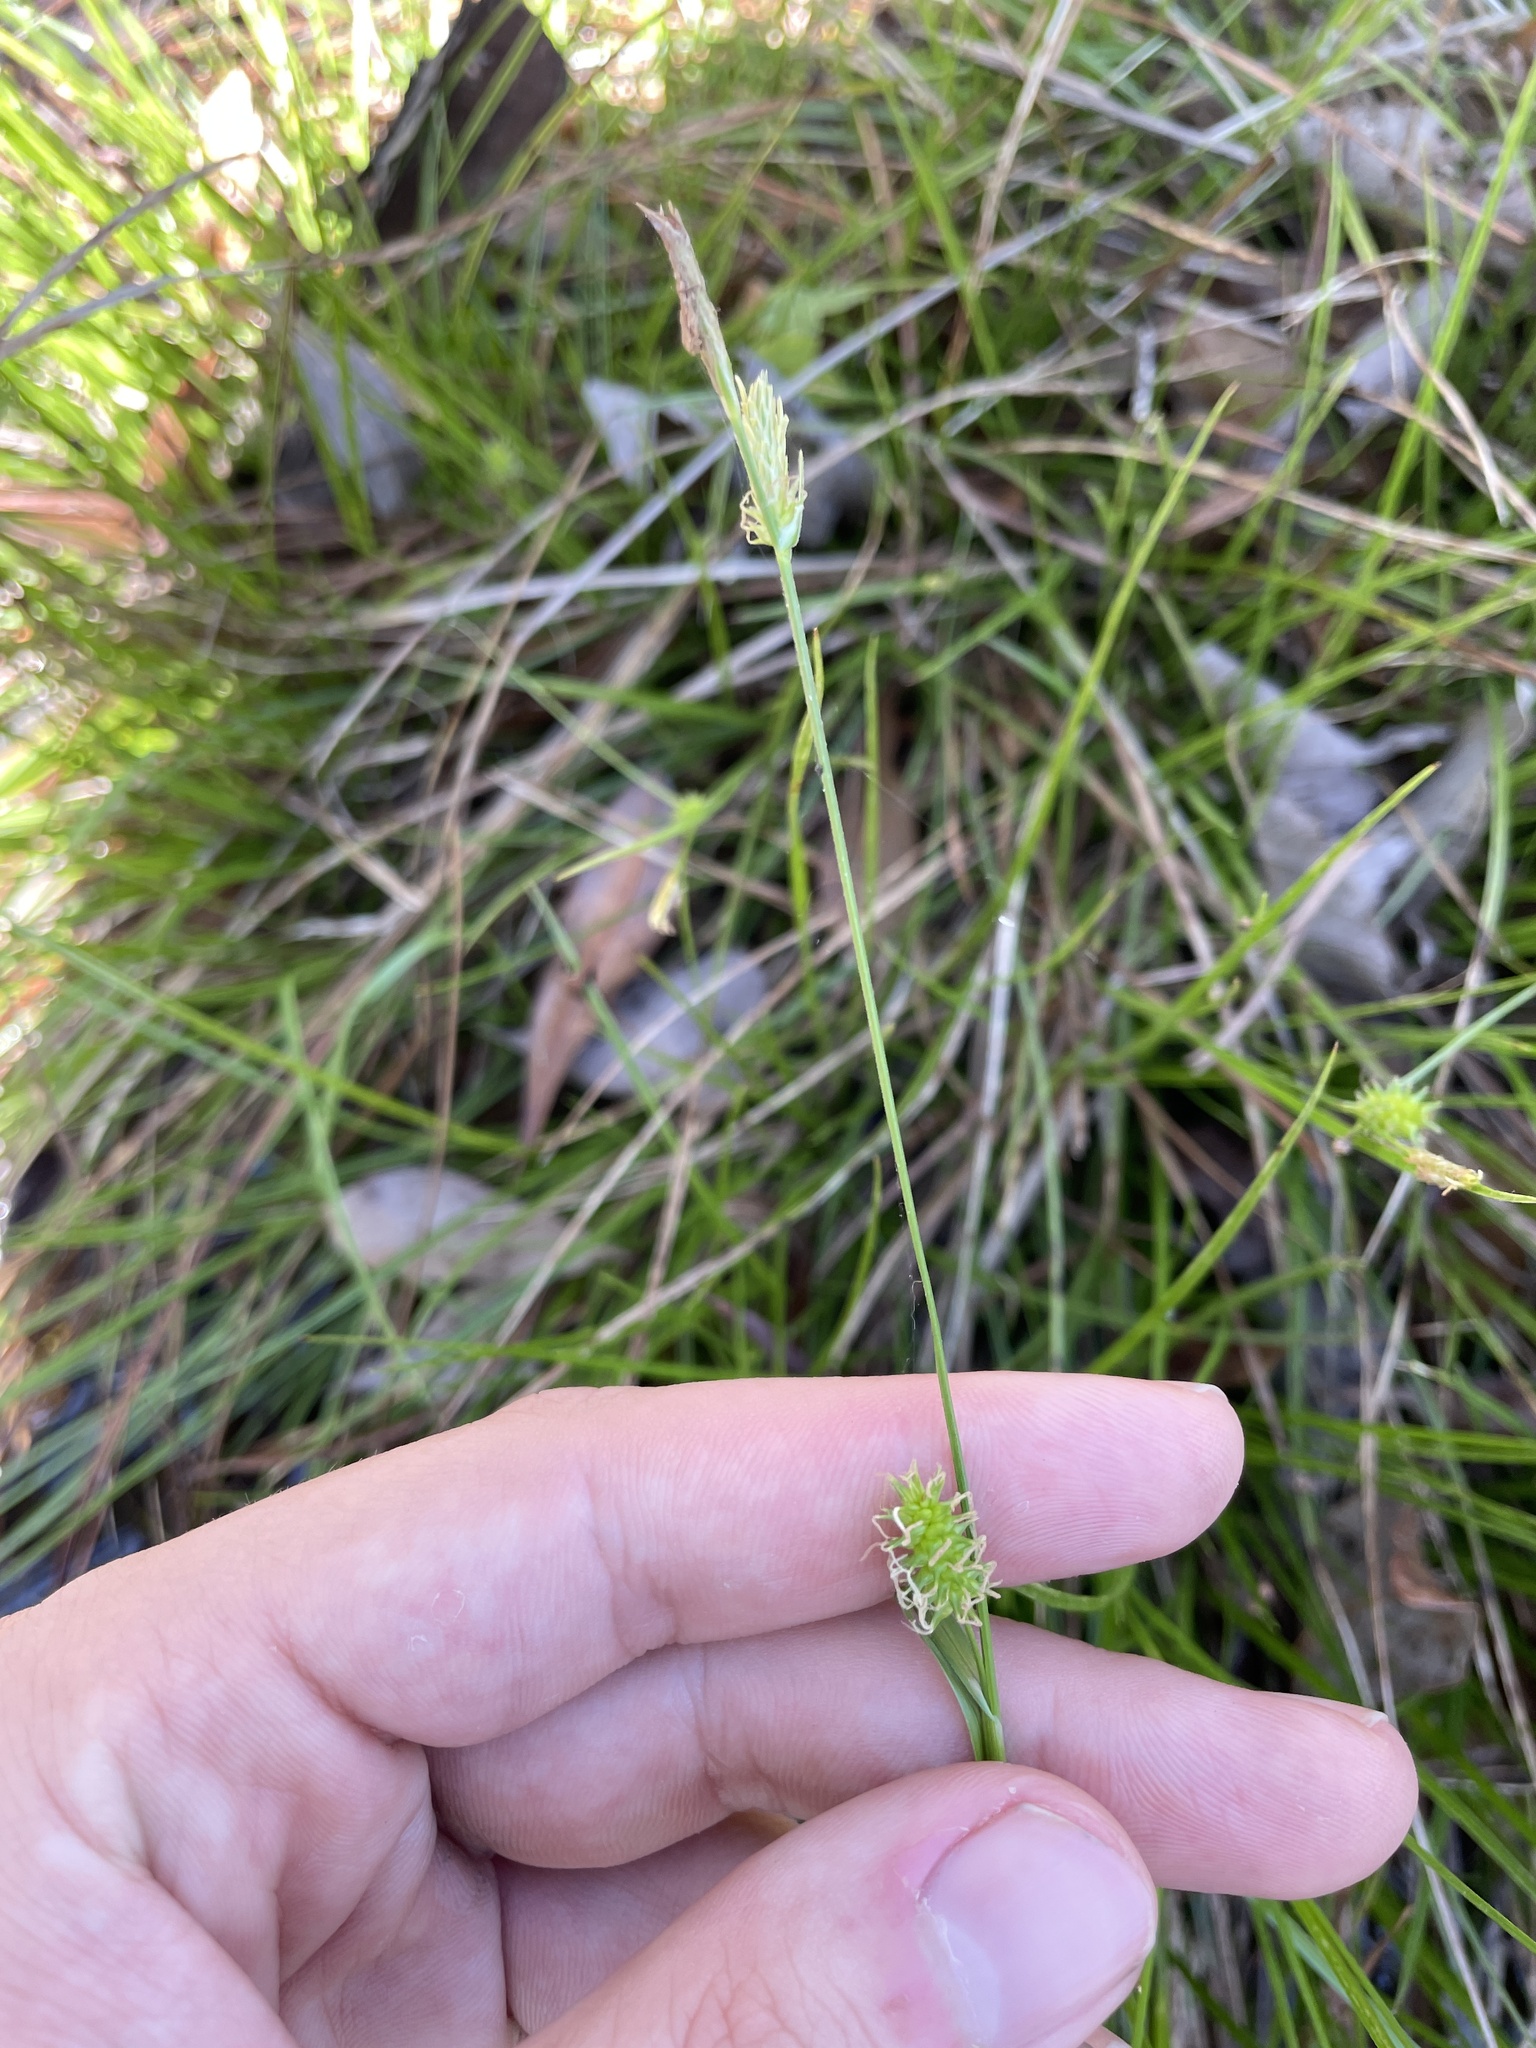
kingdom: Plantae
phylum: Tracheophyta
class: Liliopsida
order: Poales
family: Cyperaceae
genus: Carex
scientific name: Carex lutea
